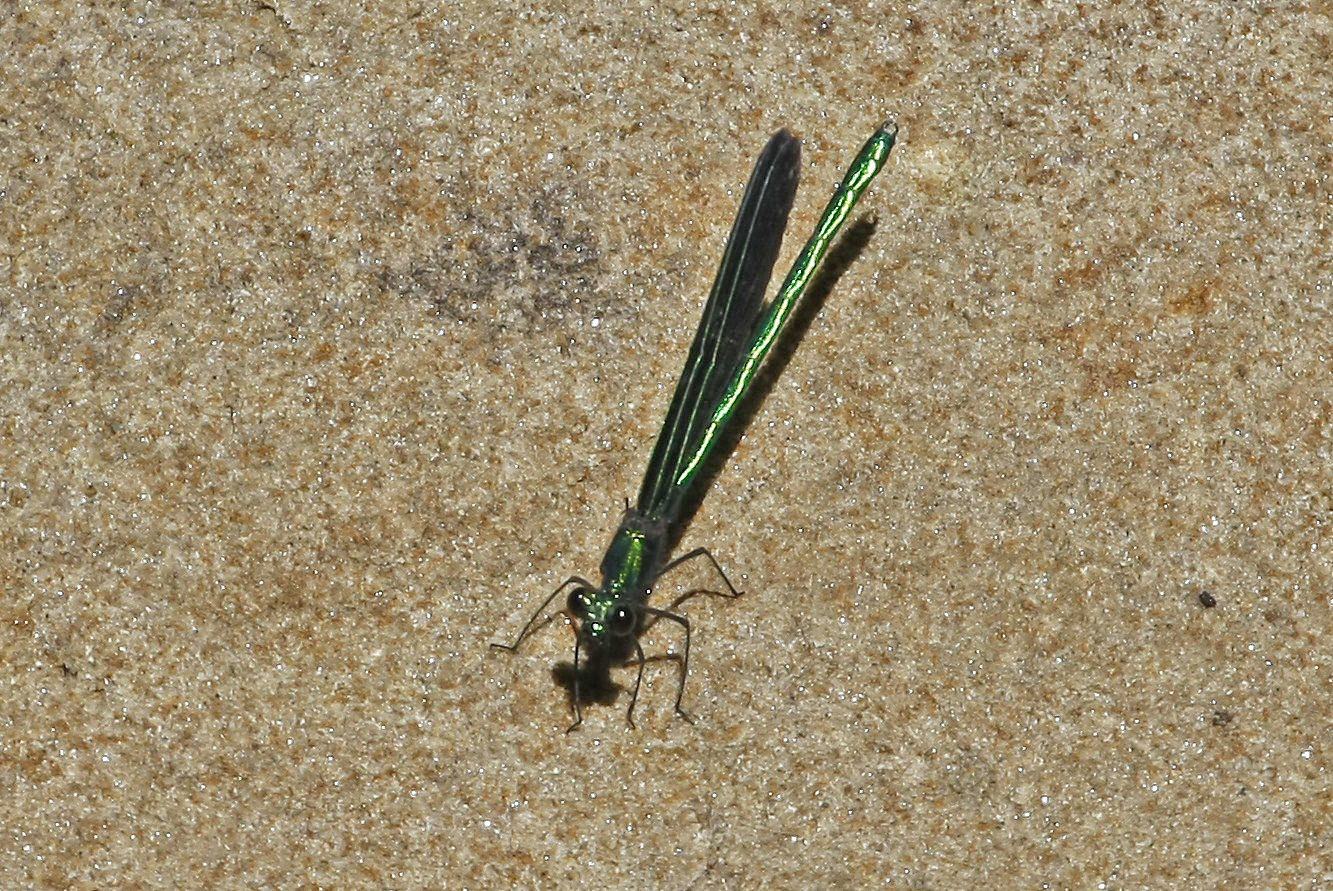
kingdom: Animalia
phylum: Arthropoda
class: Insecta
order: Odonata
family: Calopterygidae
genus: Calopteryx
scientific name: Calopteryx maculata
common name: Ebony jewelwing
